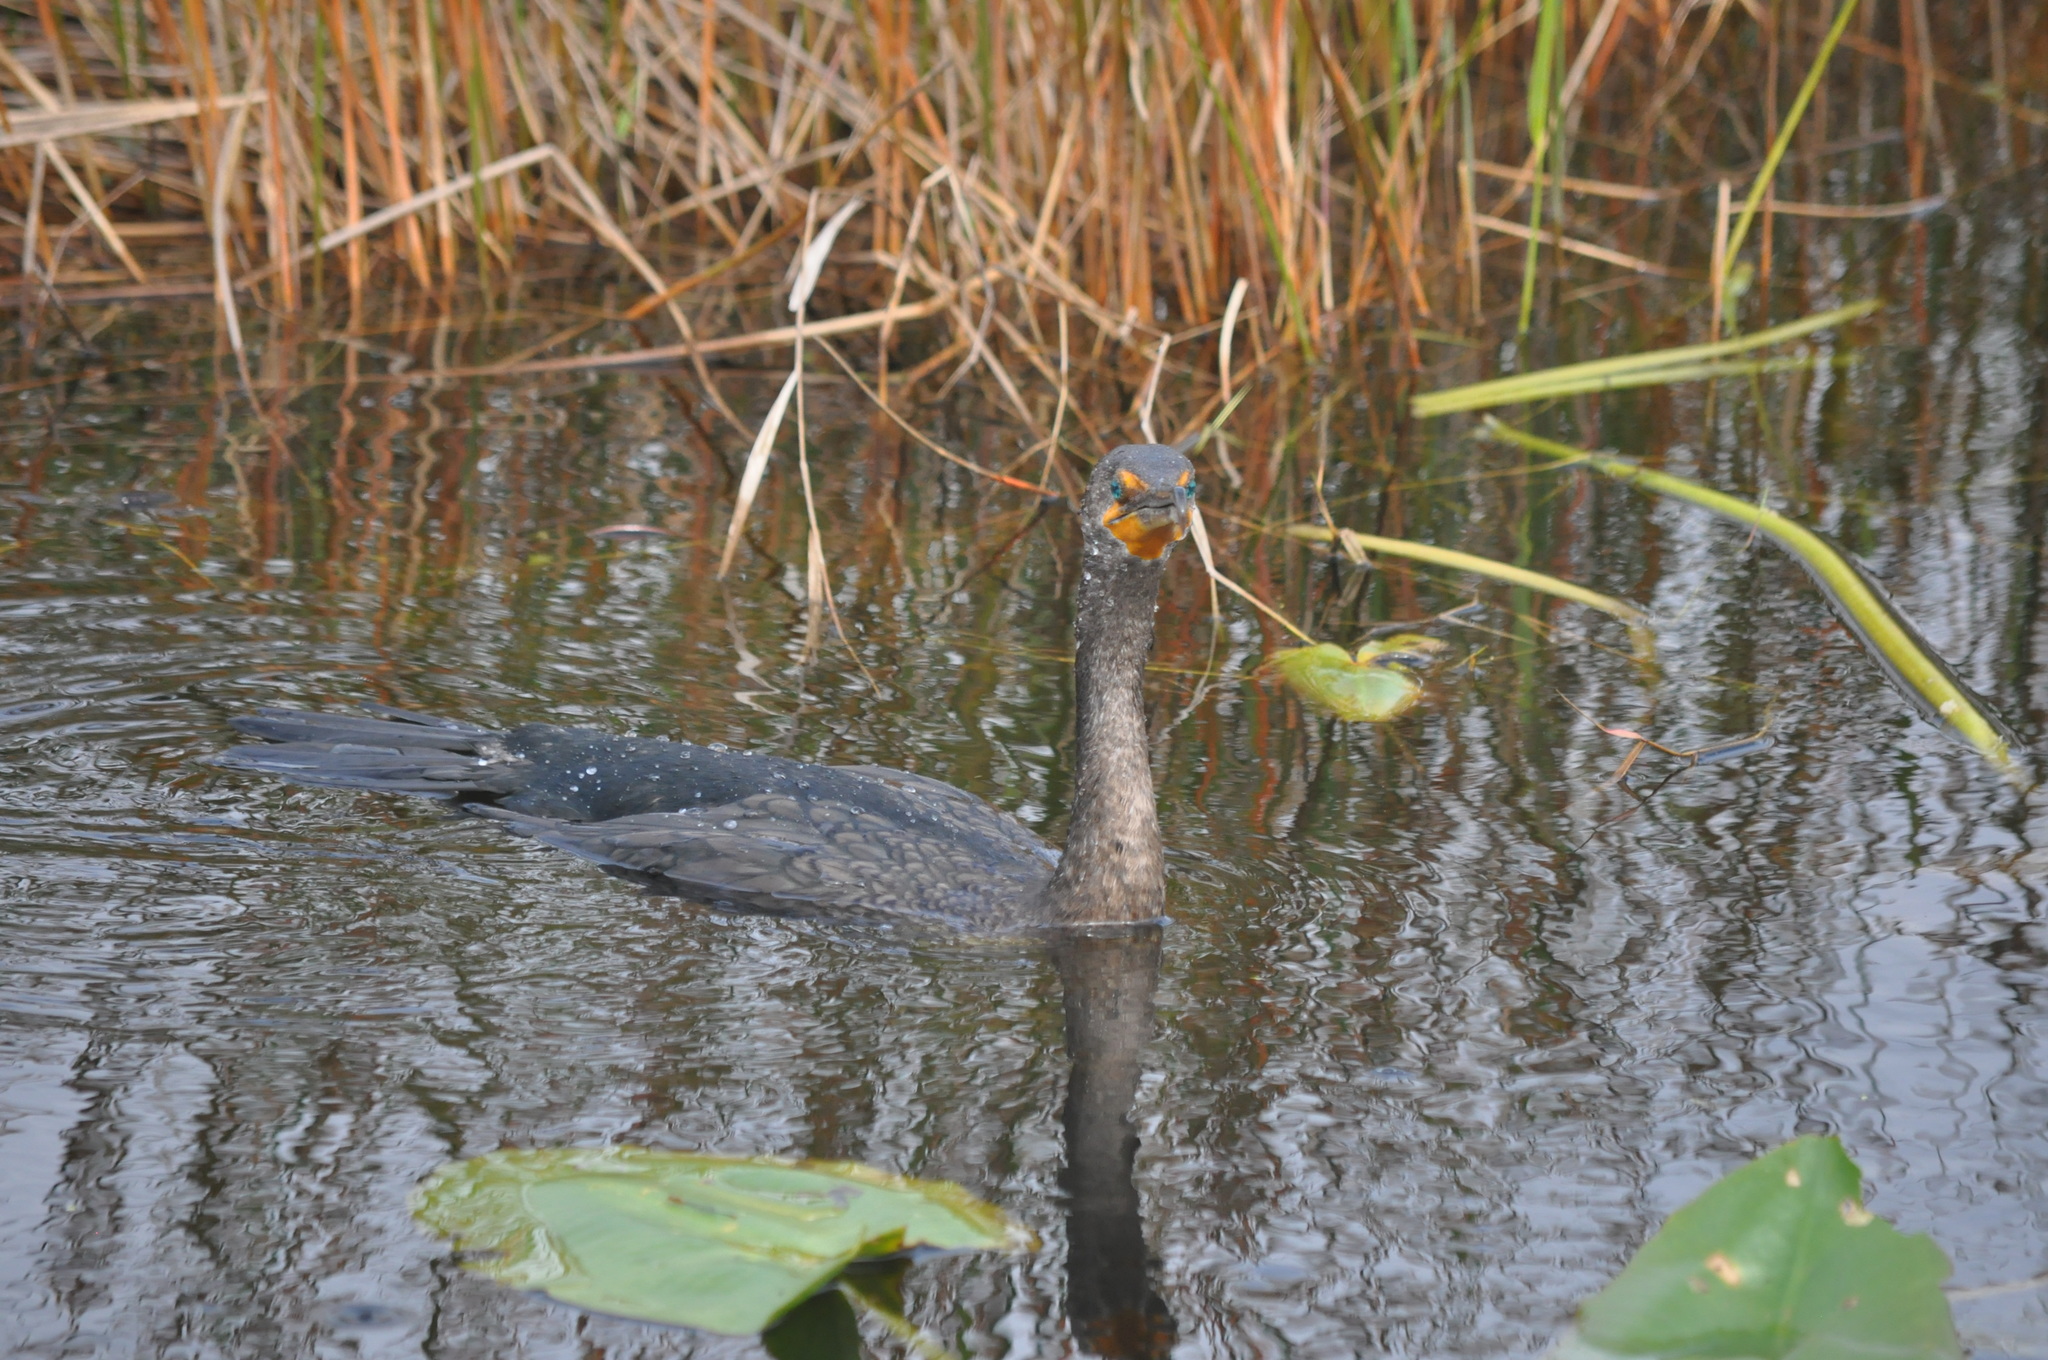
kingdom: Animalia
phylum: Chordata
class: Aves
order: Suliformes
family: Phalacrocoracidae
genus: Phalacrocorax
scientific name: Phalacrocorax auritus
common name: Double-crested cormorant
